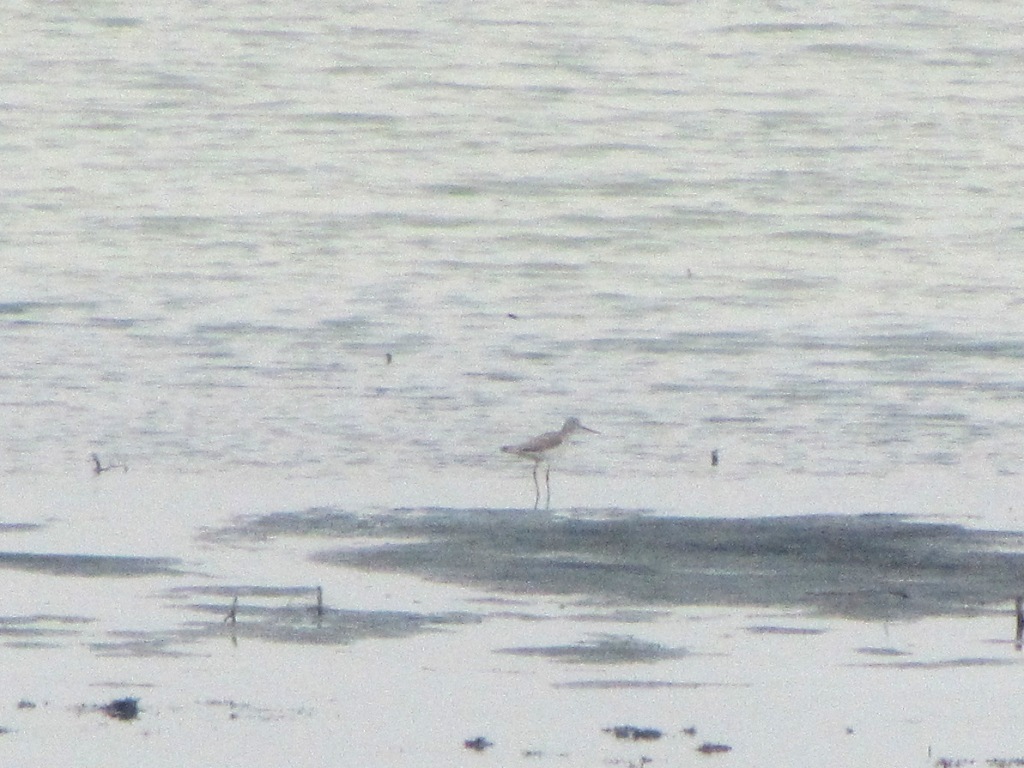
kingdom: Animalia
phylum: Chordata
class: Aves
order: Charadriiformes
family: Scolopacidae
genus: Tringa
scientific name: Tringa nebularia
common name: Common greenshank
